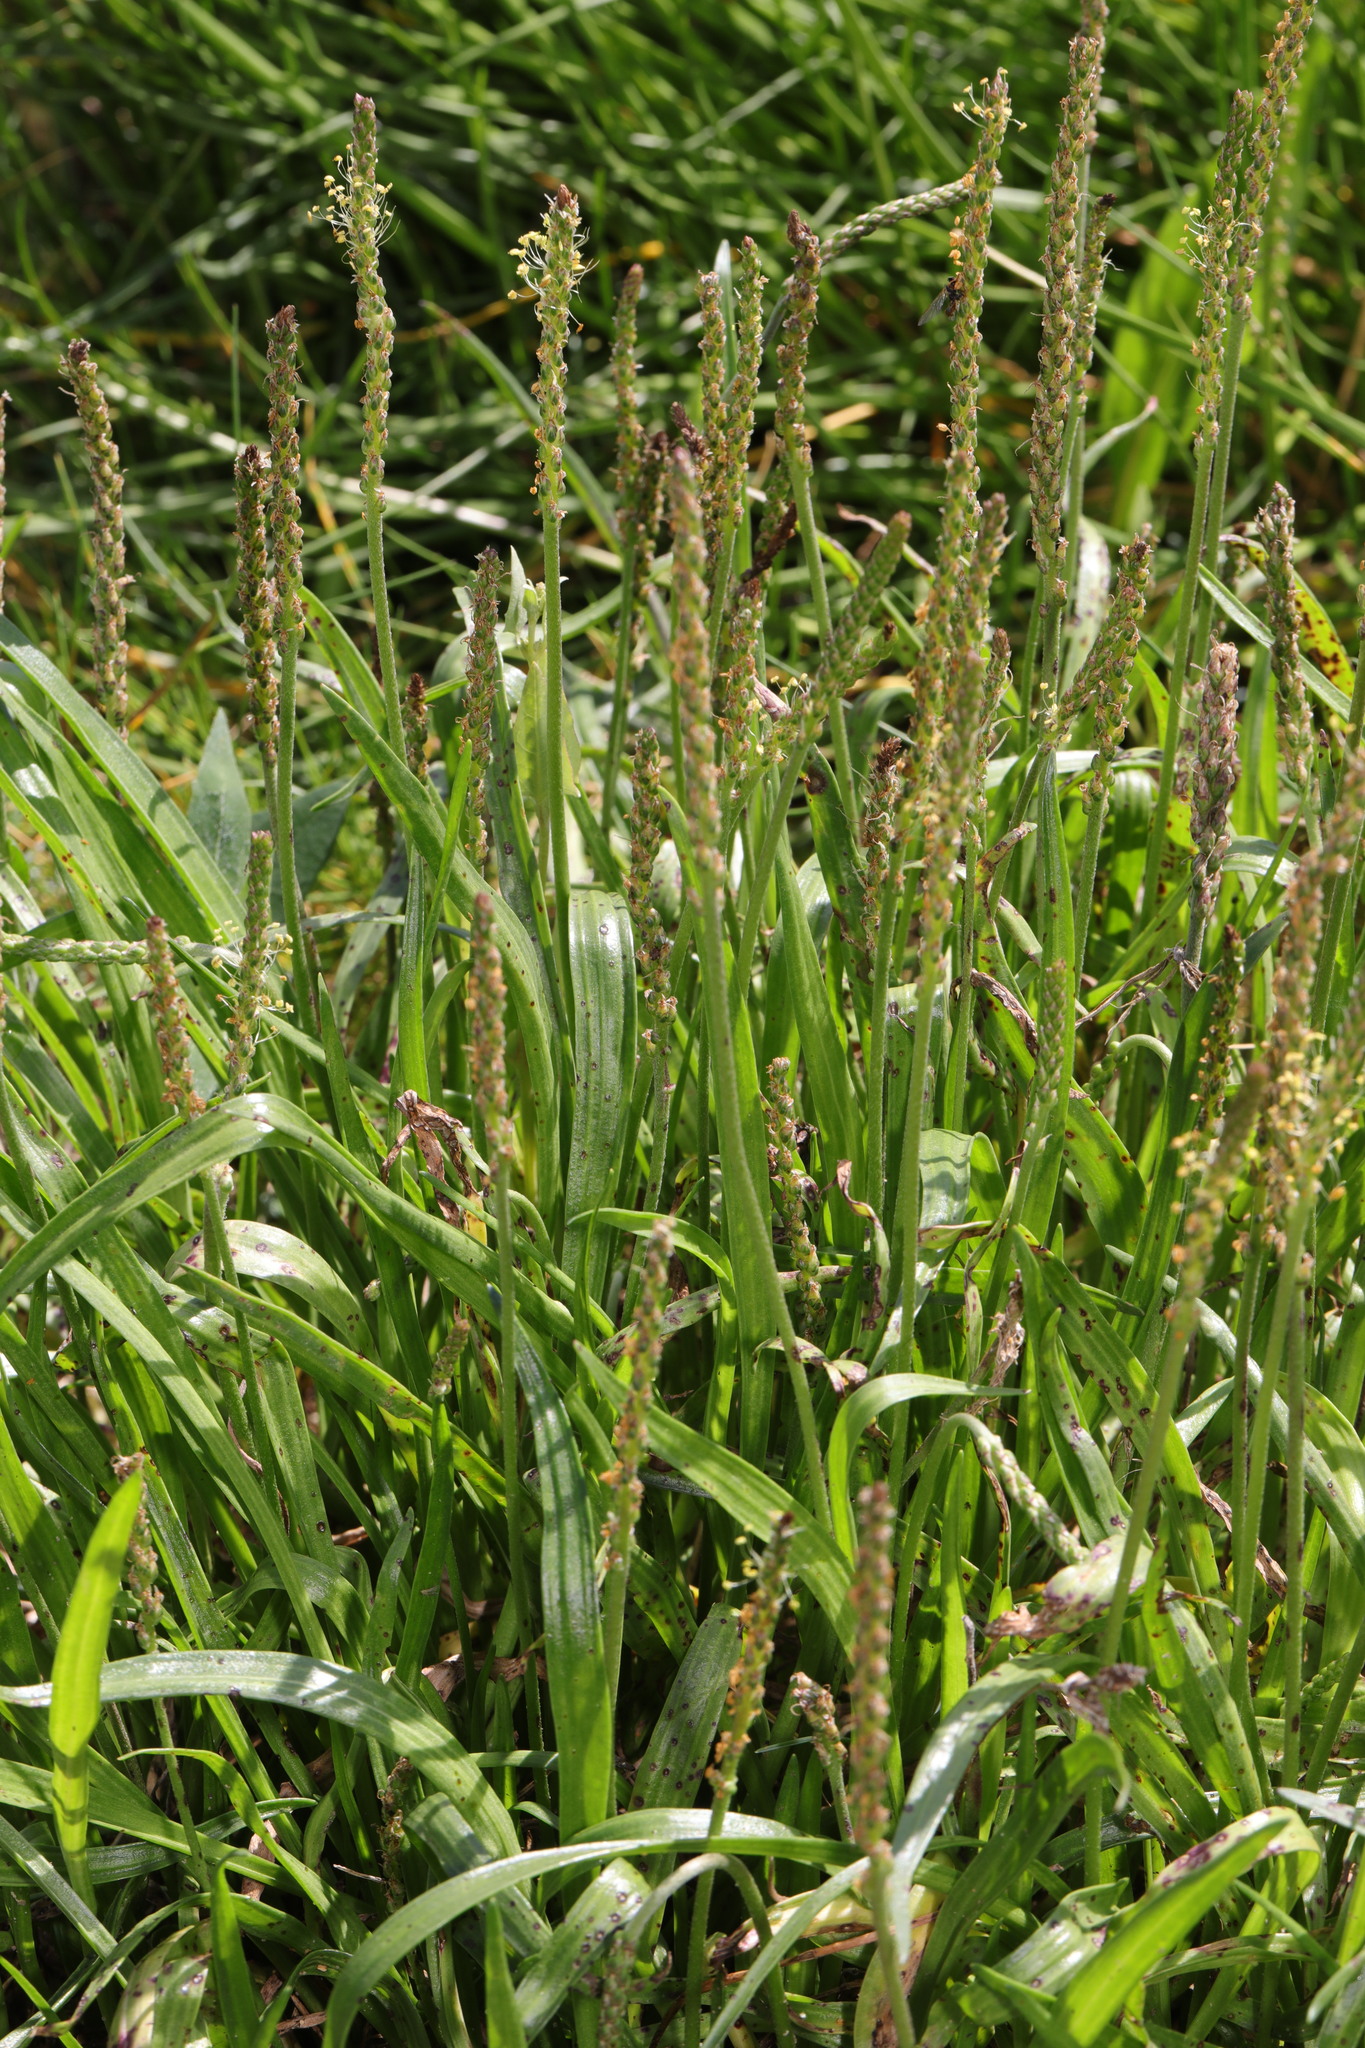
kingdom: Plantae
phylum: Tracheophyta
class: Magnoliopsida
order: Lamiales
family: Plantaginaceae
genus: Plantago
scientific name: Plantago maritima
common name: Sea plantain
